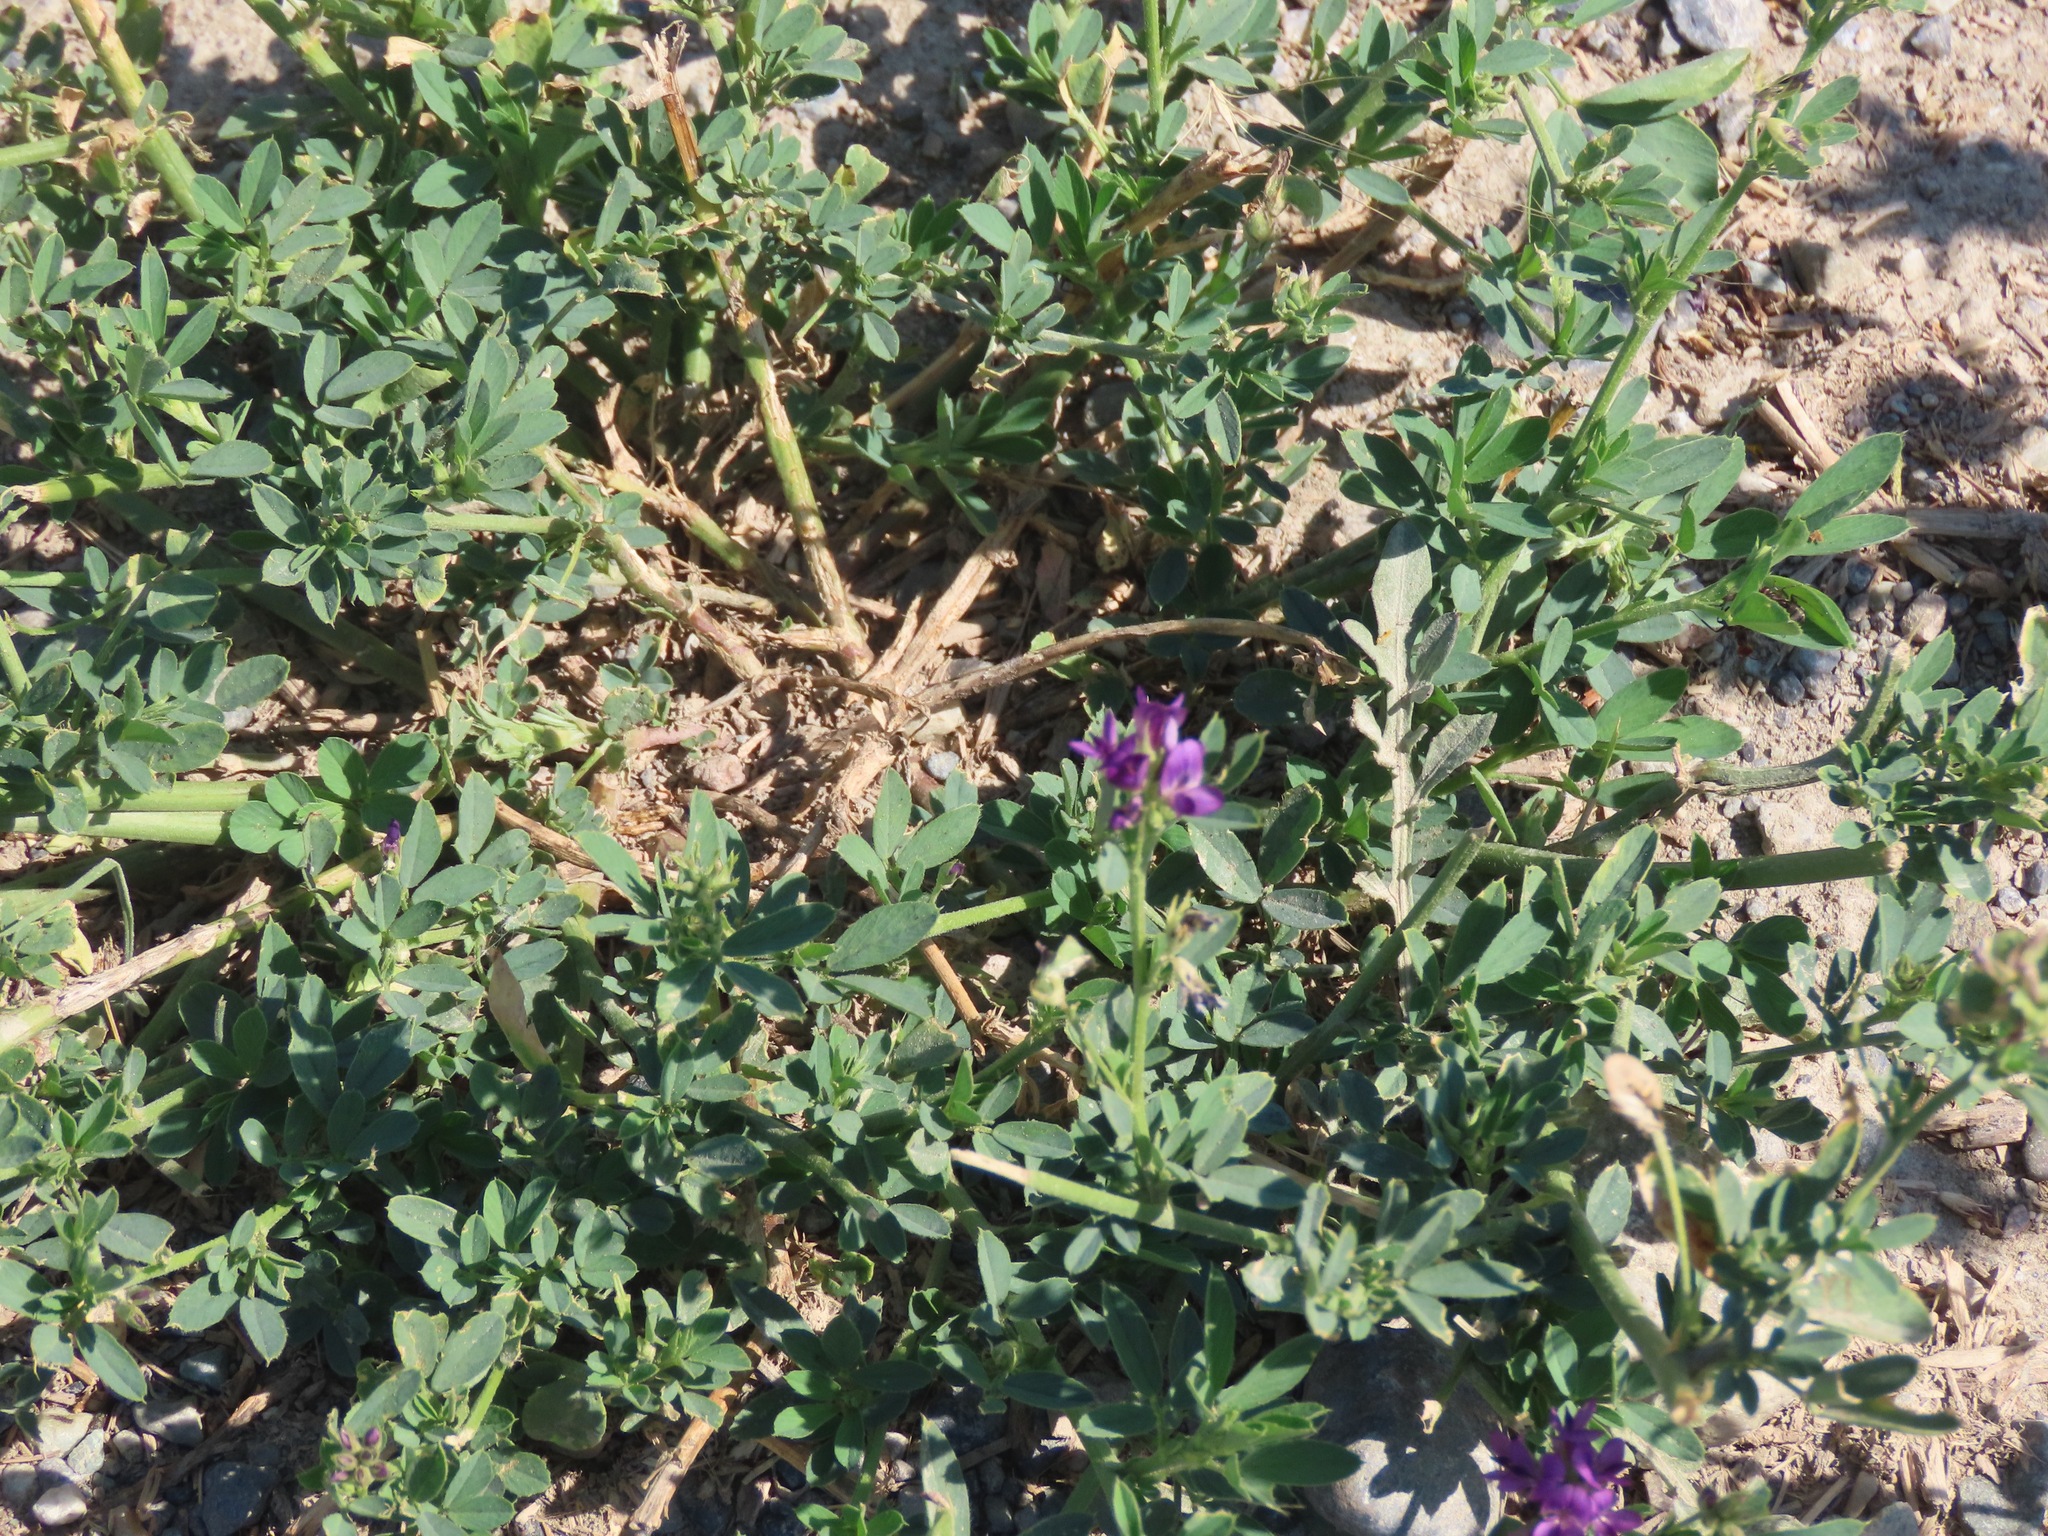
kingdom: Plantae
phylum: Tracheophyta
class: Magnoliopsida
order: Fabales
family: Fabaceae
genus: Medicago
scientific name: Medicago sativa
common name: Alfalfa
